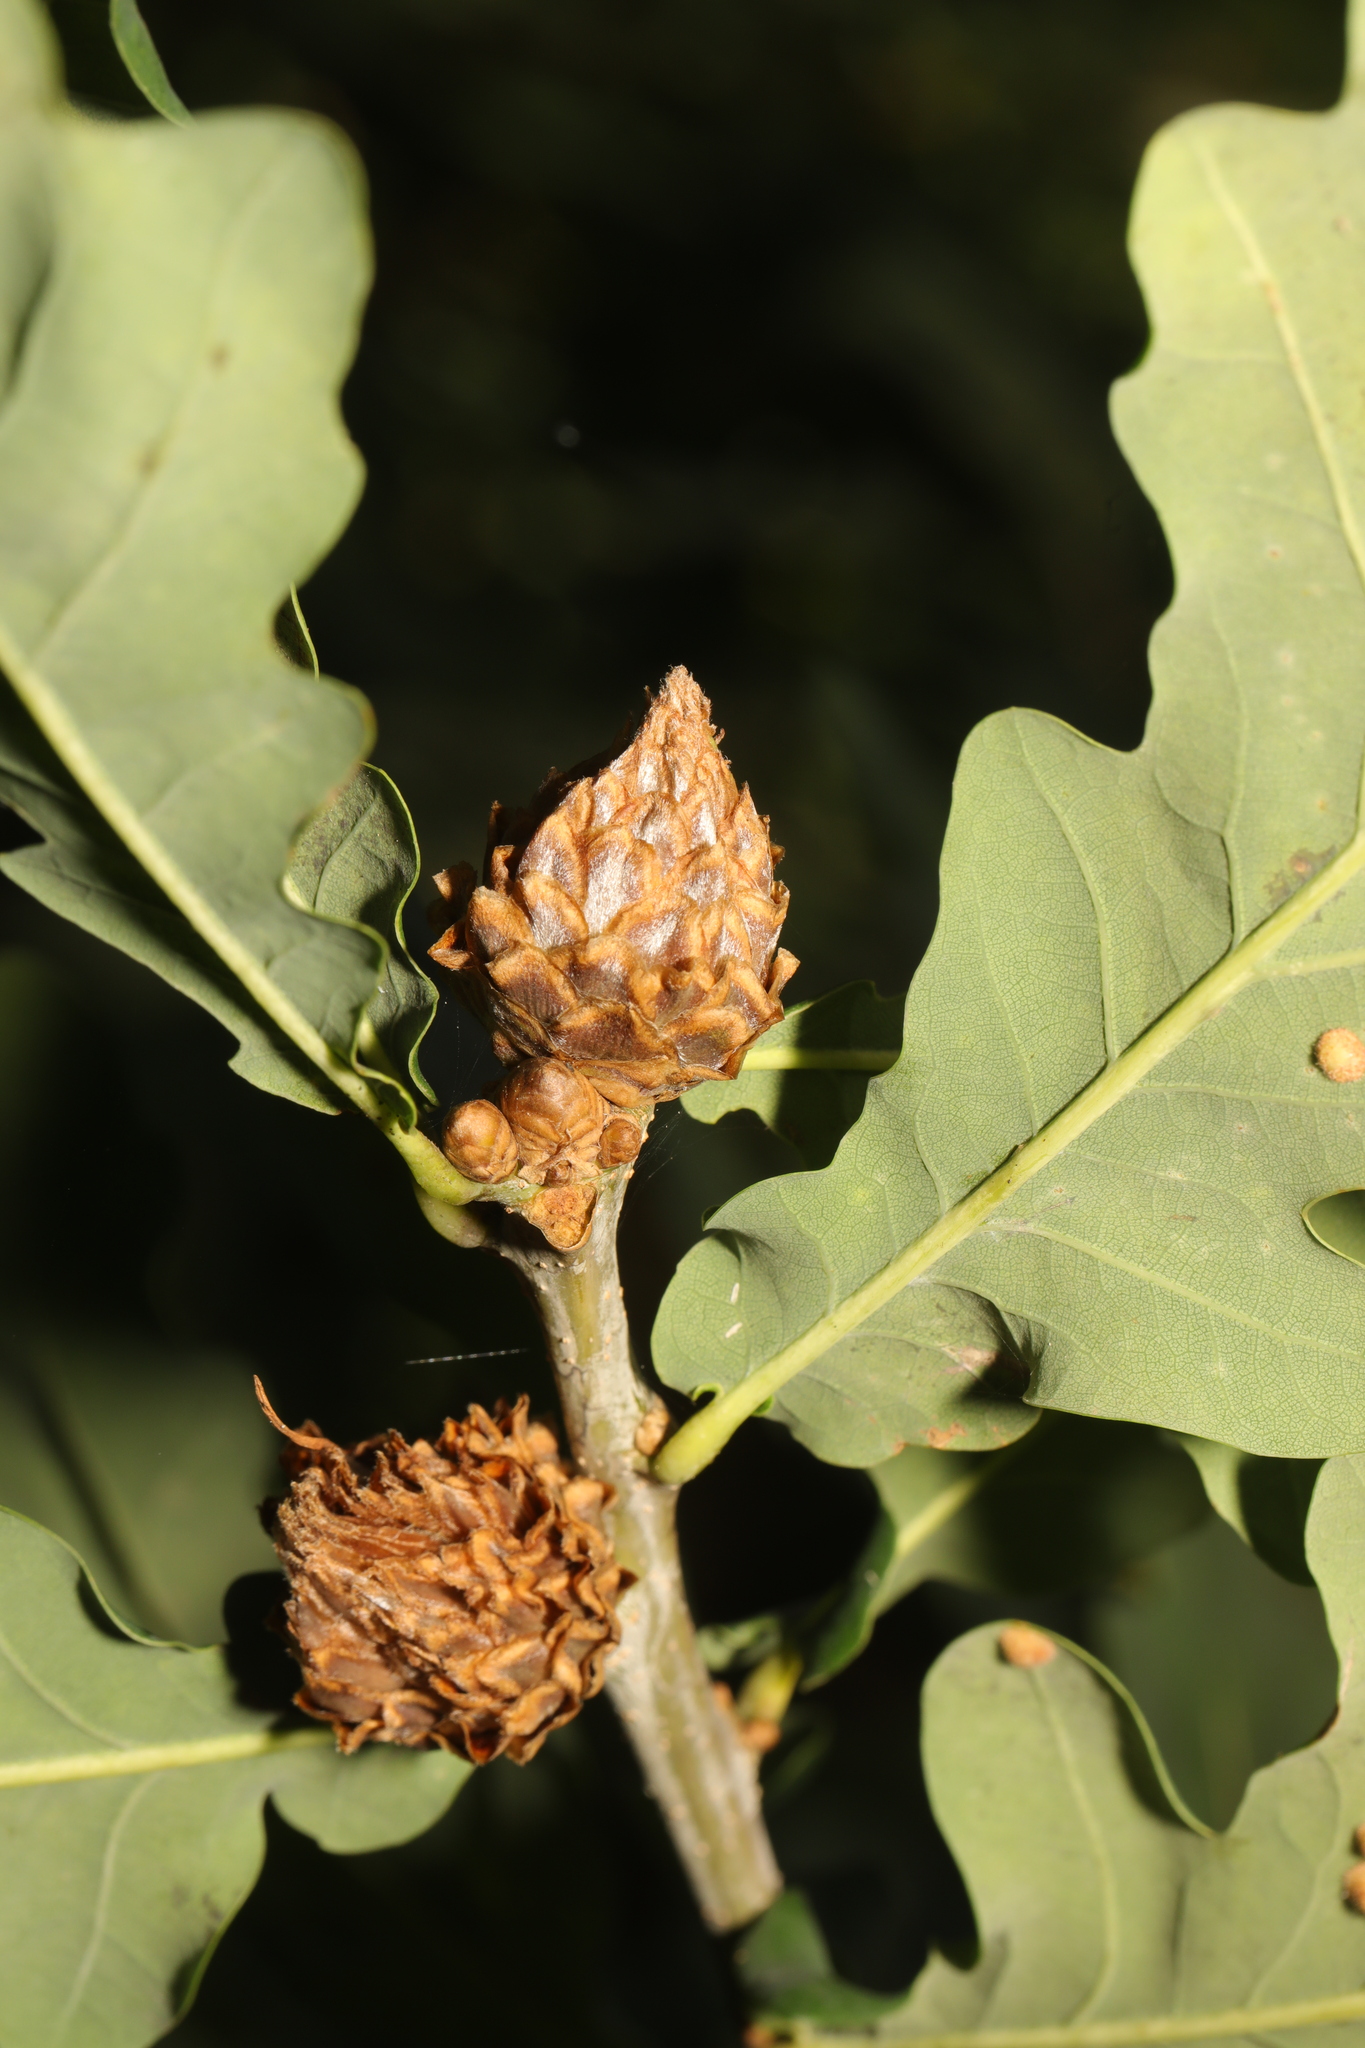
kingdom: Animalia
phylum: Arthropoda
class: Insecta
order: Hymenoptera
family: Cynipidae
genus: Andricus
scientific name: Andricus foecundatrix
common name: Artichoke gall
